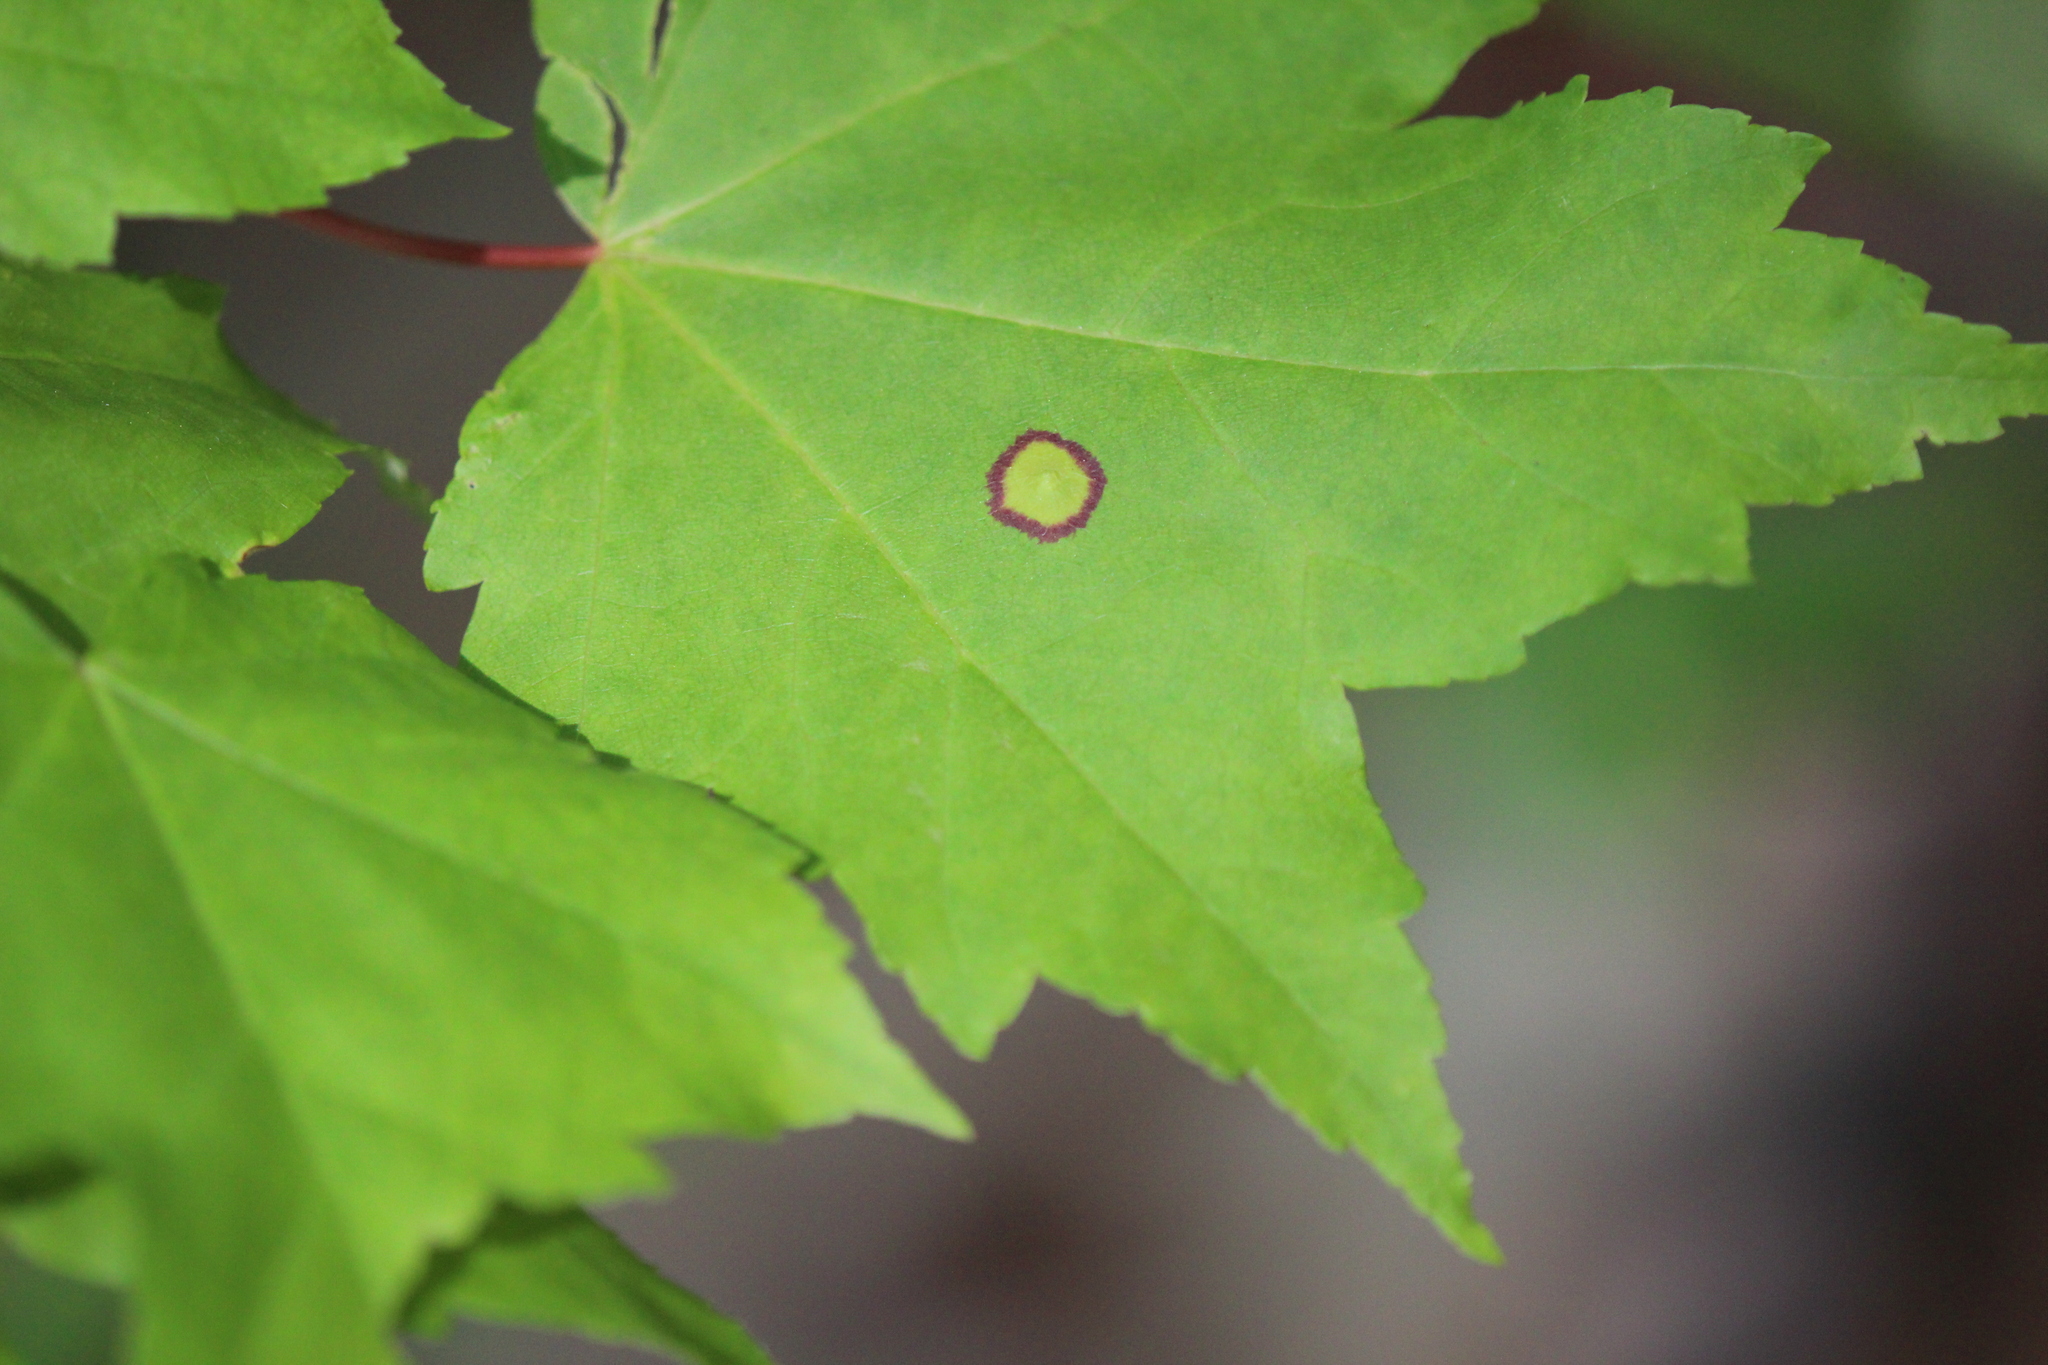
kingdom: Animalia
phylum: Arthropoda
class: Insecta
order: Diptera
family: Cecidomyiidae
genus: Acericecis
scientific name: Acericecis ocellaris
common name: Ocellate gall midge
